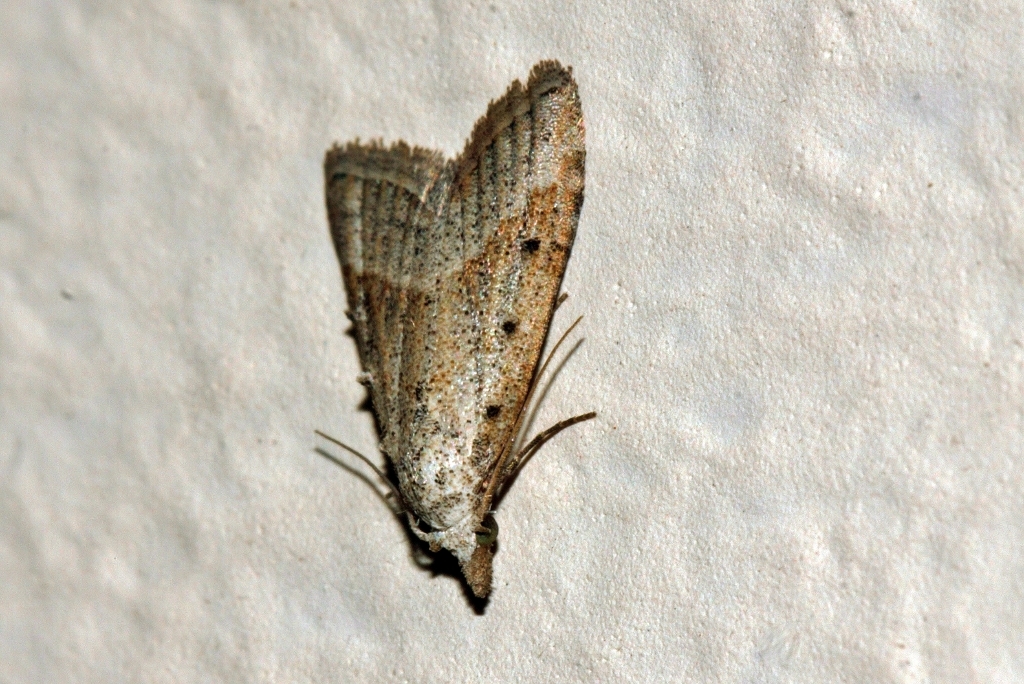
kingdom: Animalia
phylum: Arthropoda
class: Insecta
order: Lepidoptera
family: Nolidae
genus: Nola
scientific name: Nola tineoides
